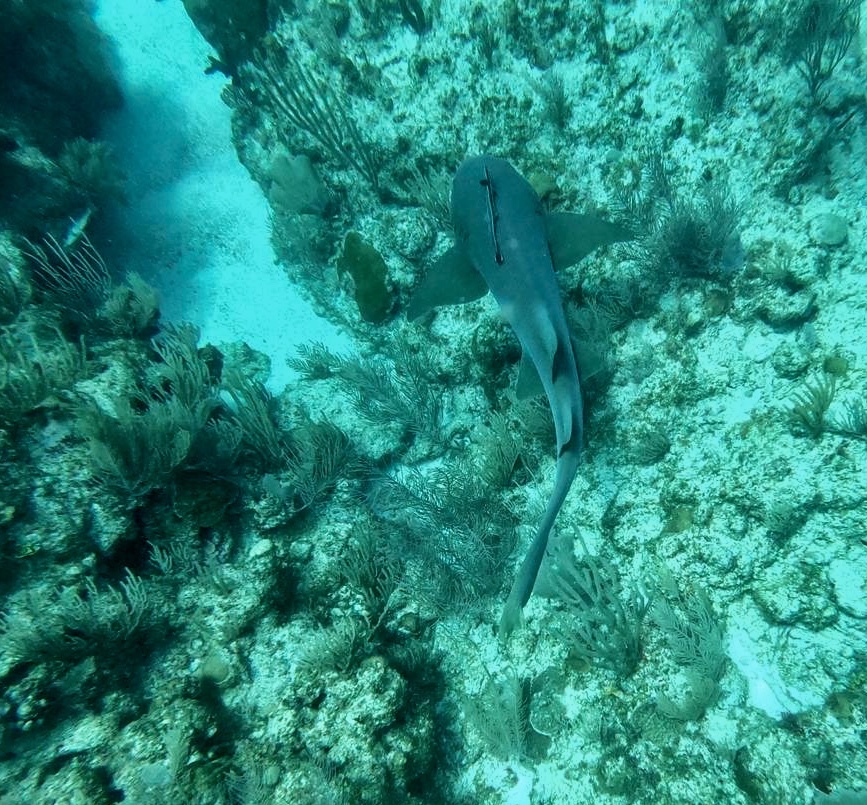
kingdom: Animalia
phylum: Chordata
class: Elasmobranchii
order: Orectolobiformes
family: Ginglymostomatidae
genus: Ginglymostoma
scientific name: Ginglymostoma cirratum
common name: Nurse shark
